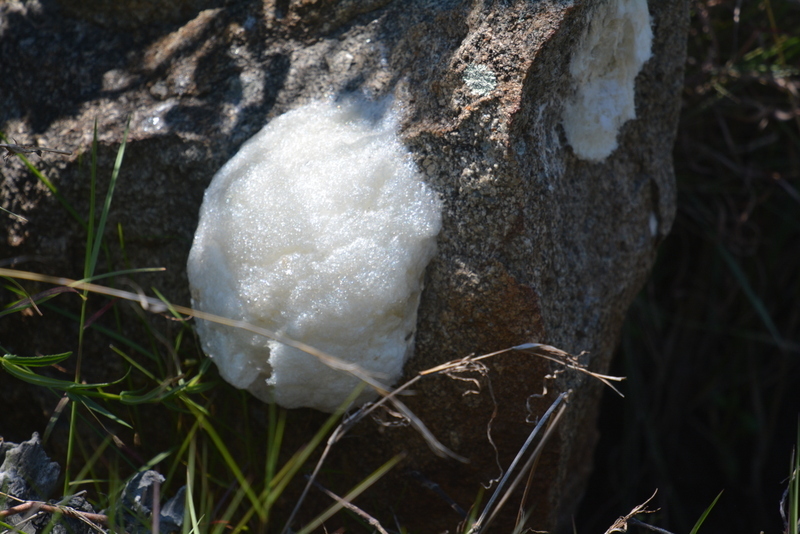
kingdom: Animalia
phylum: Chordata
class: Amphibia
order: Anura
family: Rhacophoridae
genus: Chiromantis
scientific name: Chiromantis xerampelina
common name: African gray treefrog
